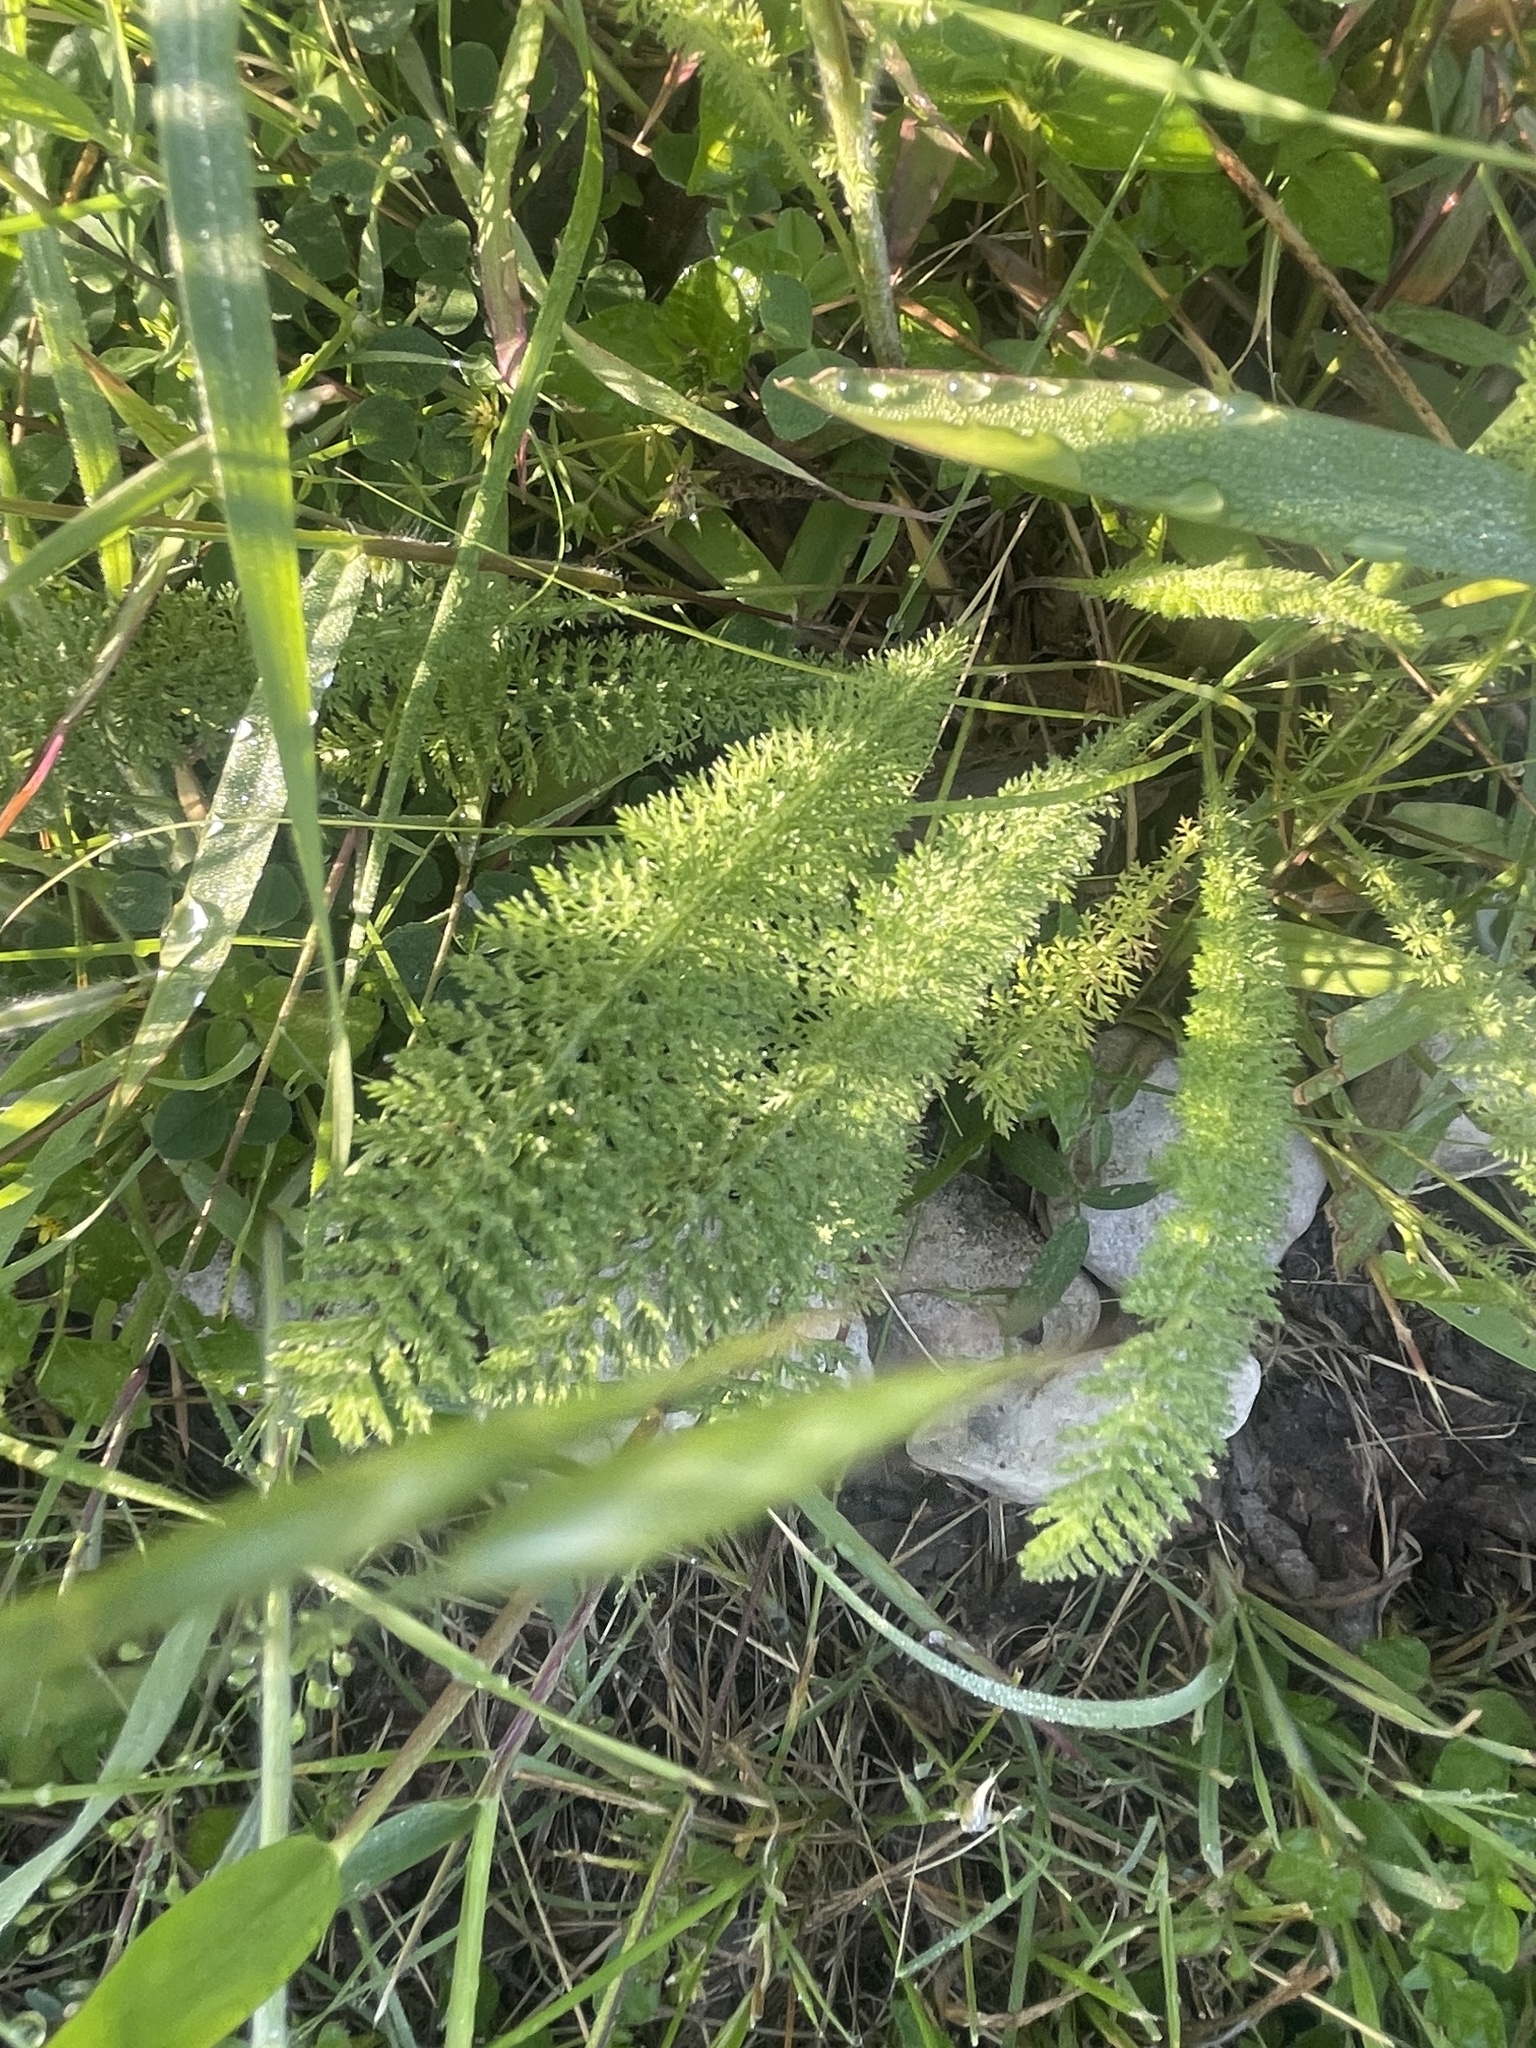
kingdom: Plantae
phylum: Tracheophyta
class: Magnoliopsida
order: Asterales
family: Asteraceae
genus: Achillea
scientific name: Achillea millefolium
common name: Yarrow
